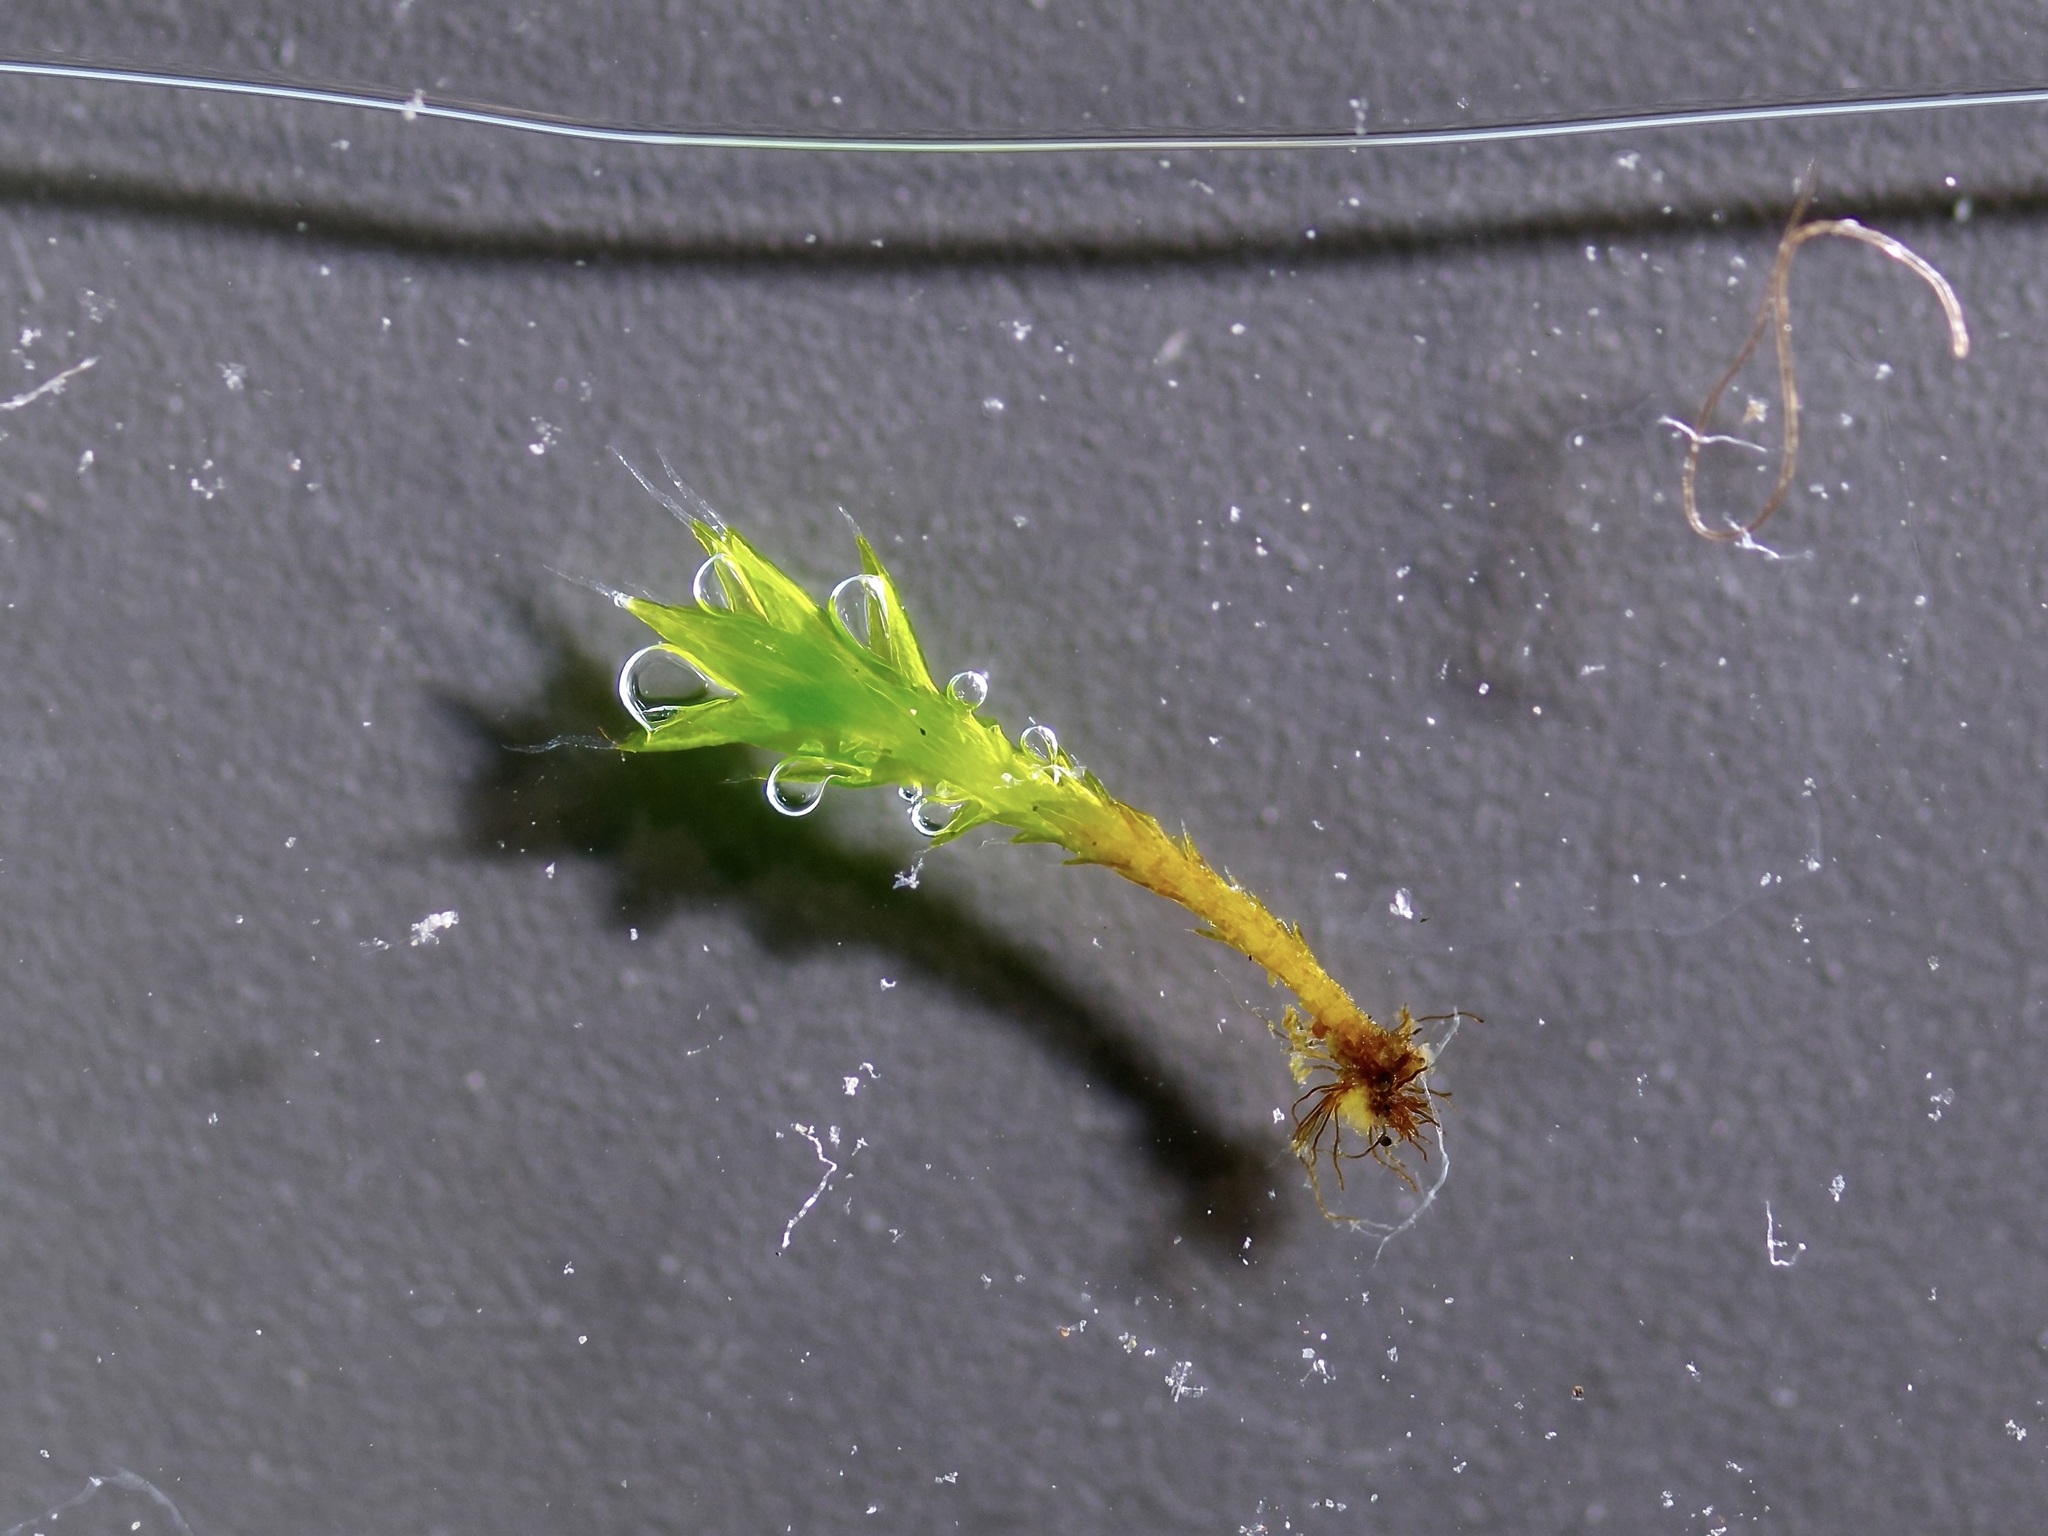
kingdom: Plantae
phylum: Bryophyta
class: Bryopsida
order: Grimmiales
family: Grimmiaceae
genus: Grimmia
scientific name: Grimmia laevigata
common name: Hoary grimmia
